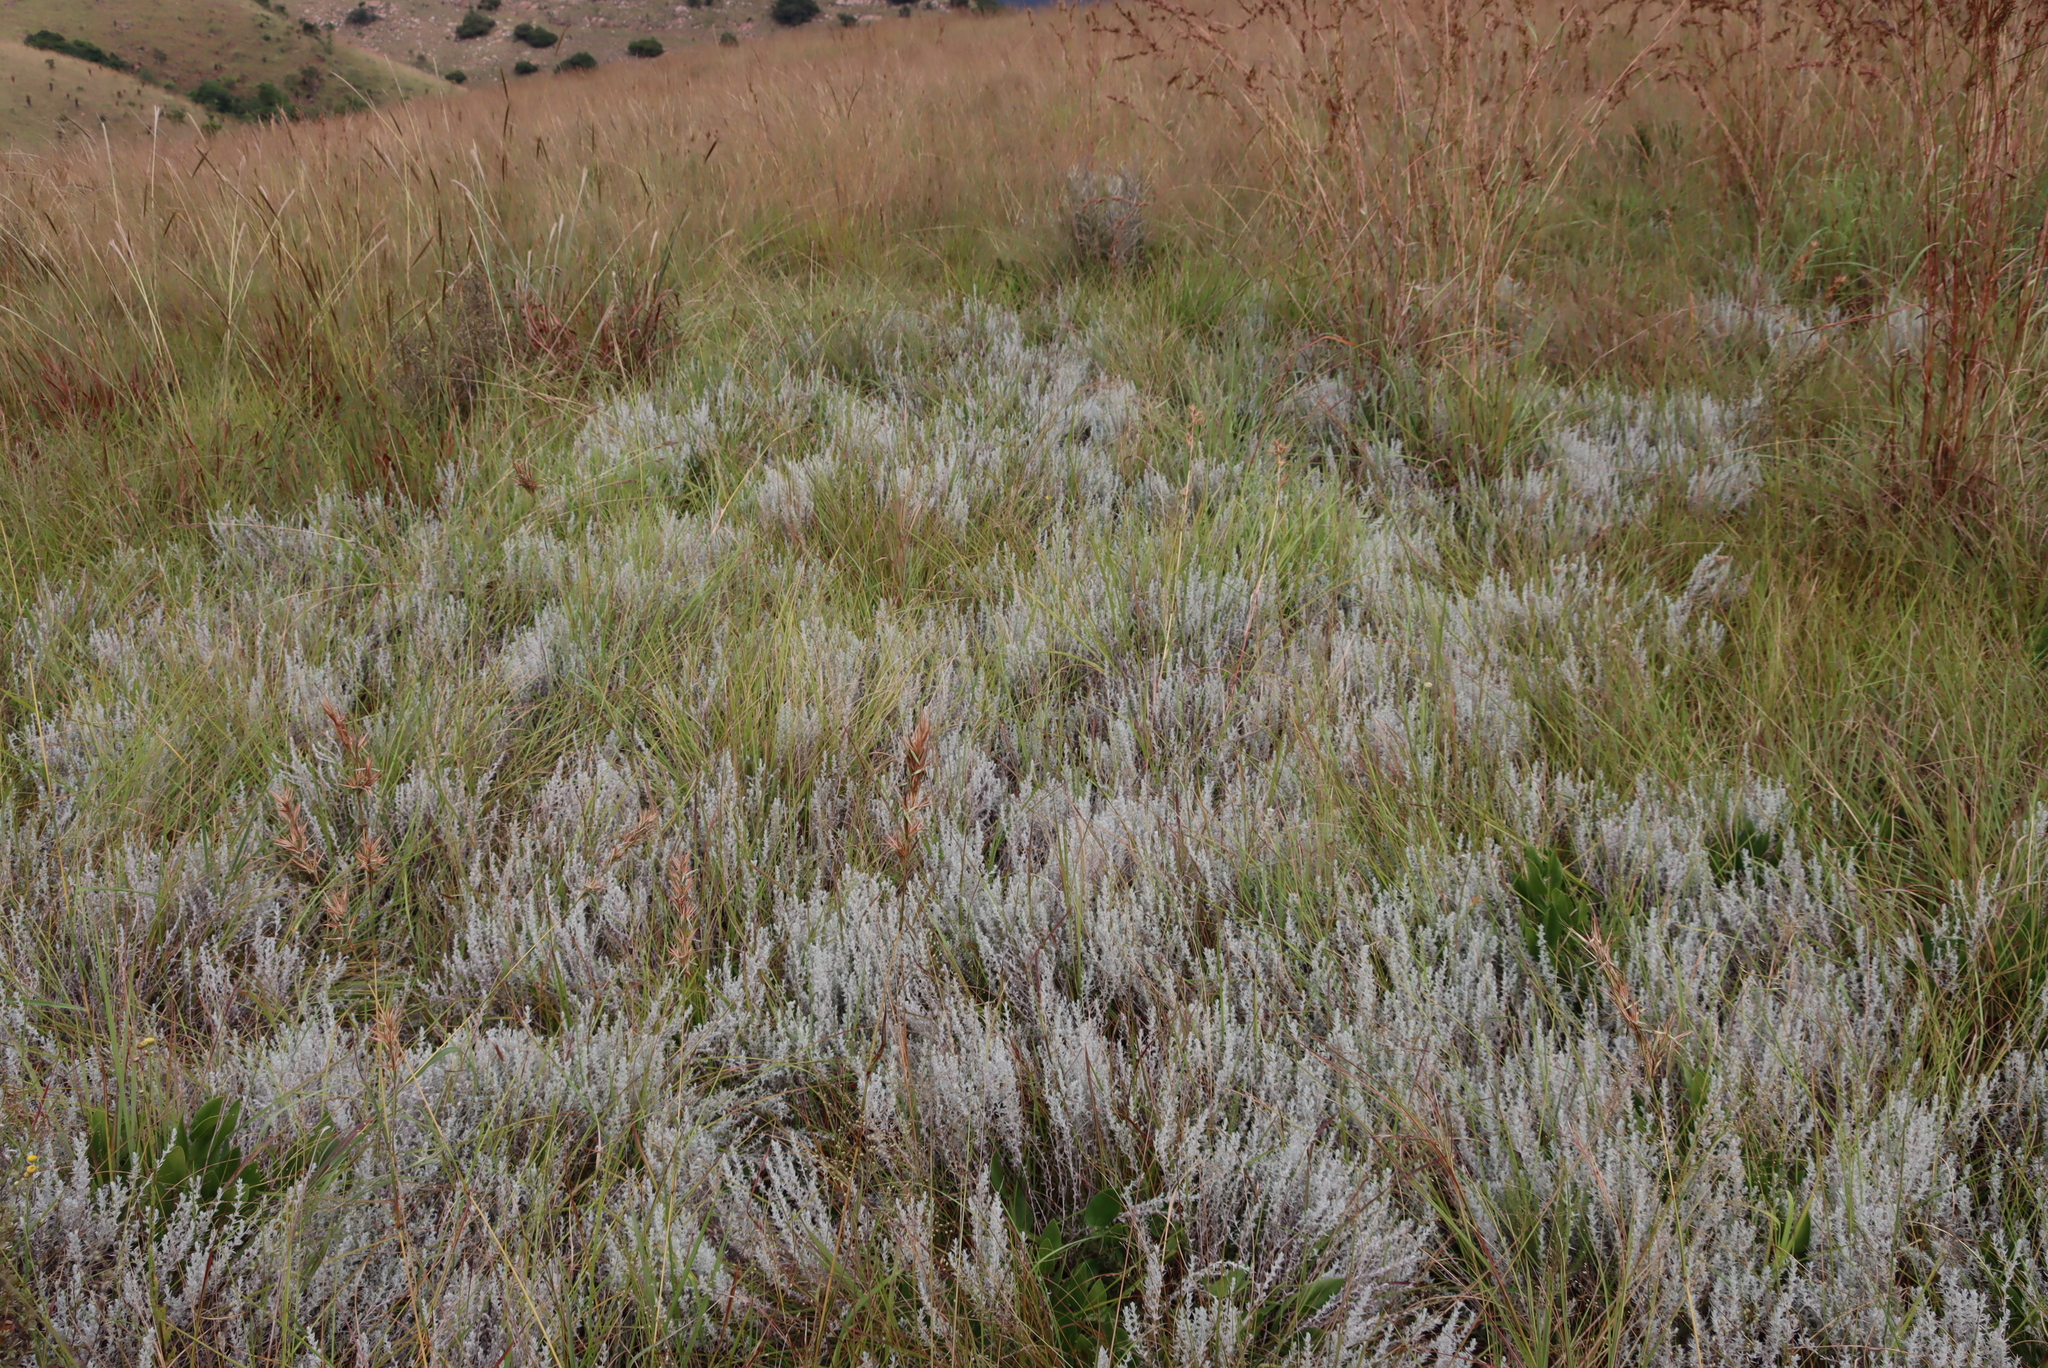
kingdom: Plantae
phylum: Tracheophyta
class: Magnoliopsida
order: Asterales
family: Asteraceae
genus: Helichrysum
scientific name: Helichrysum aureonitens
